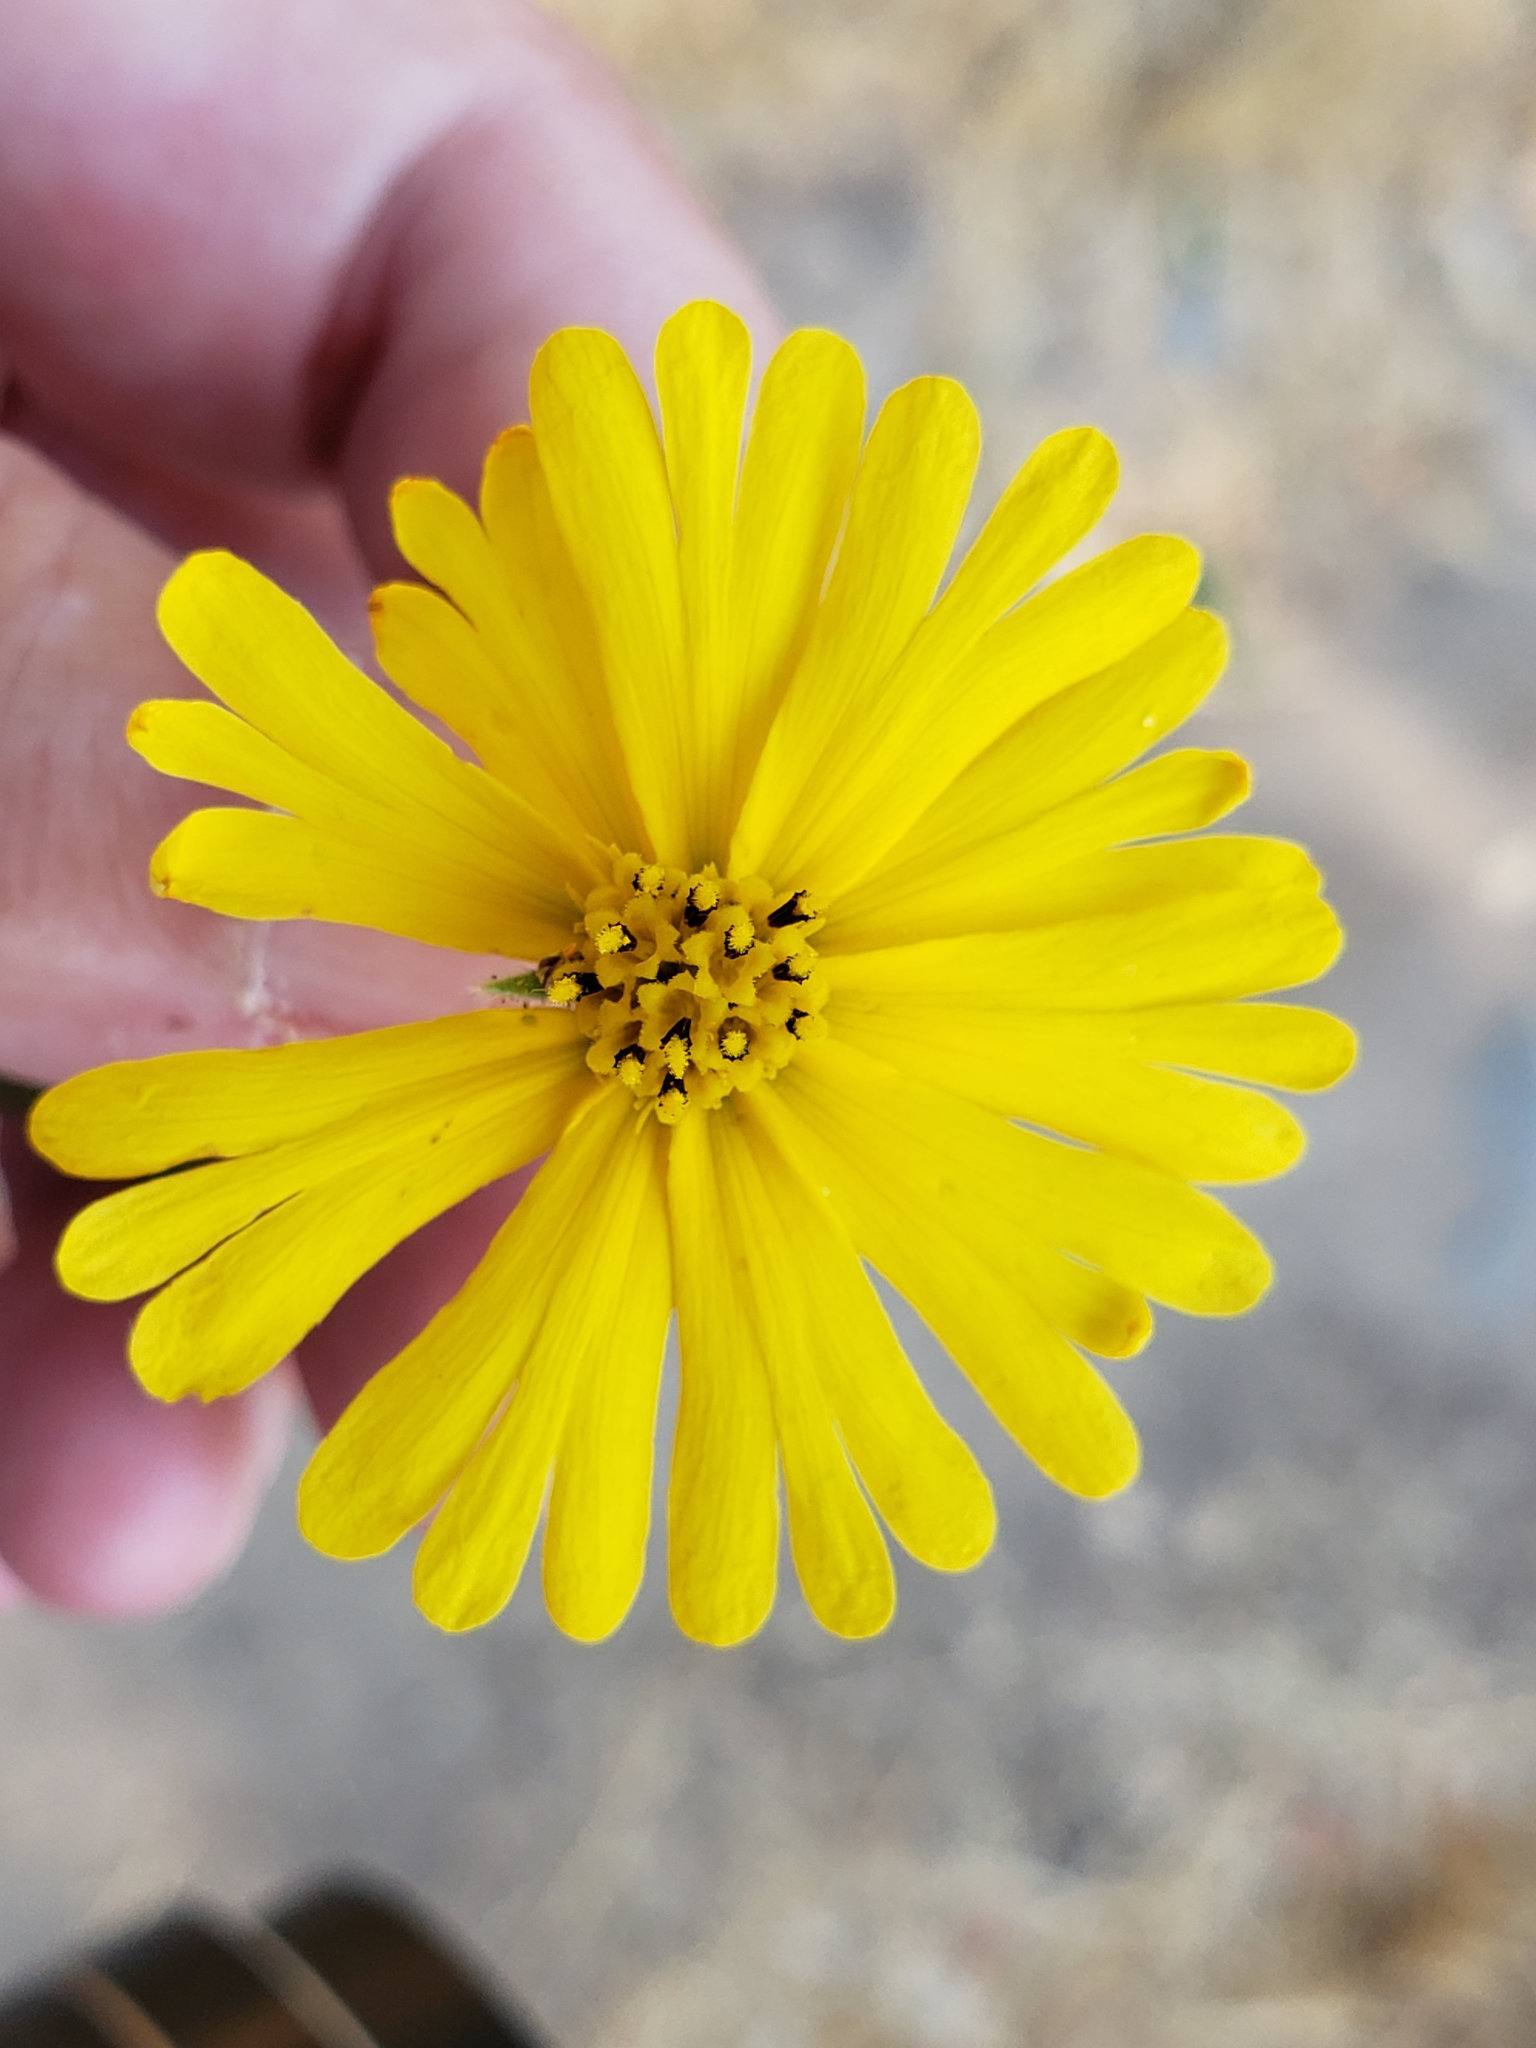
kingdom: Plantae
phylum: Tracheophyta
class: Magnoliopsida
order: Asterales
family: Asteraceae
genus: Madia
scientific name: Madia elegans
